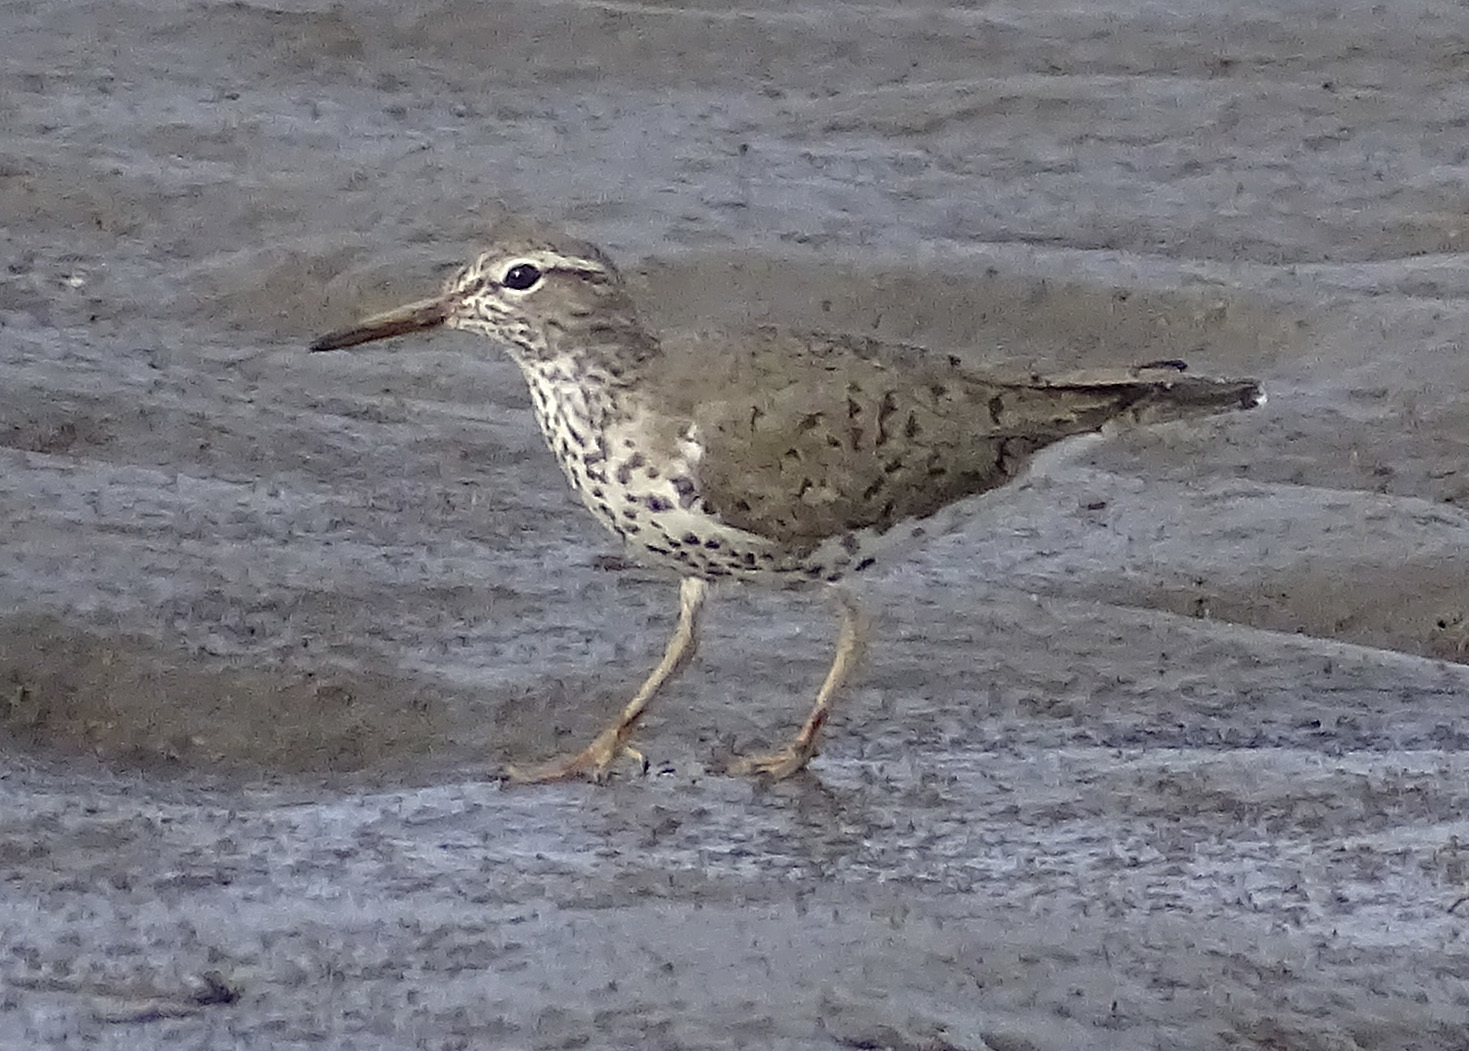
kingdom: Animalia
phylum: Chordata
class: Aves
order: Charadriiformes
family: Scolopacidae
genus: Actitis
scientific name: Actitis macularius
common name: Spotted sandpiper
